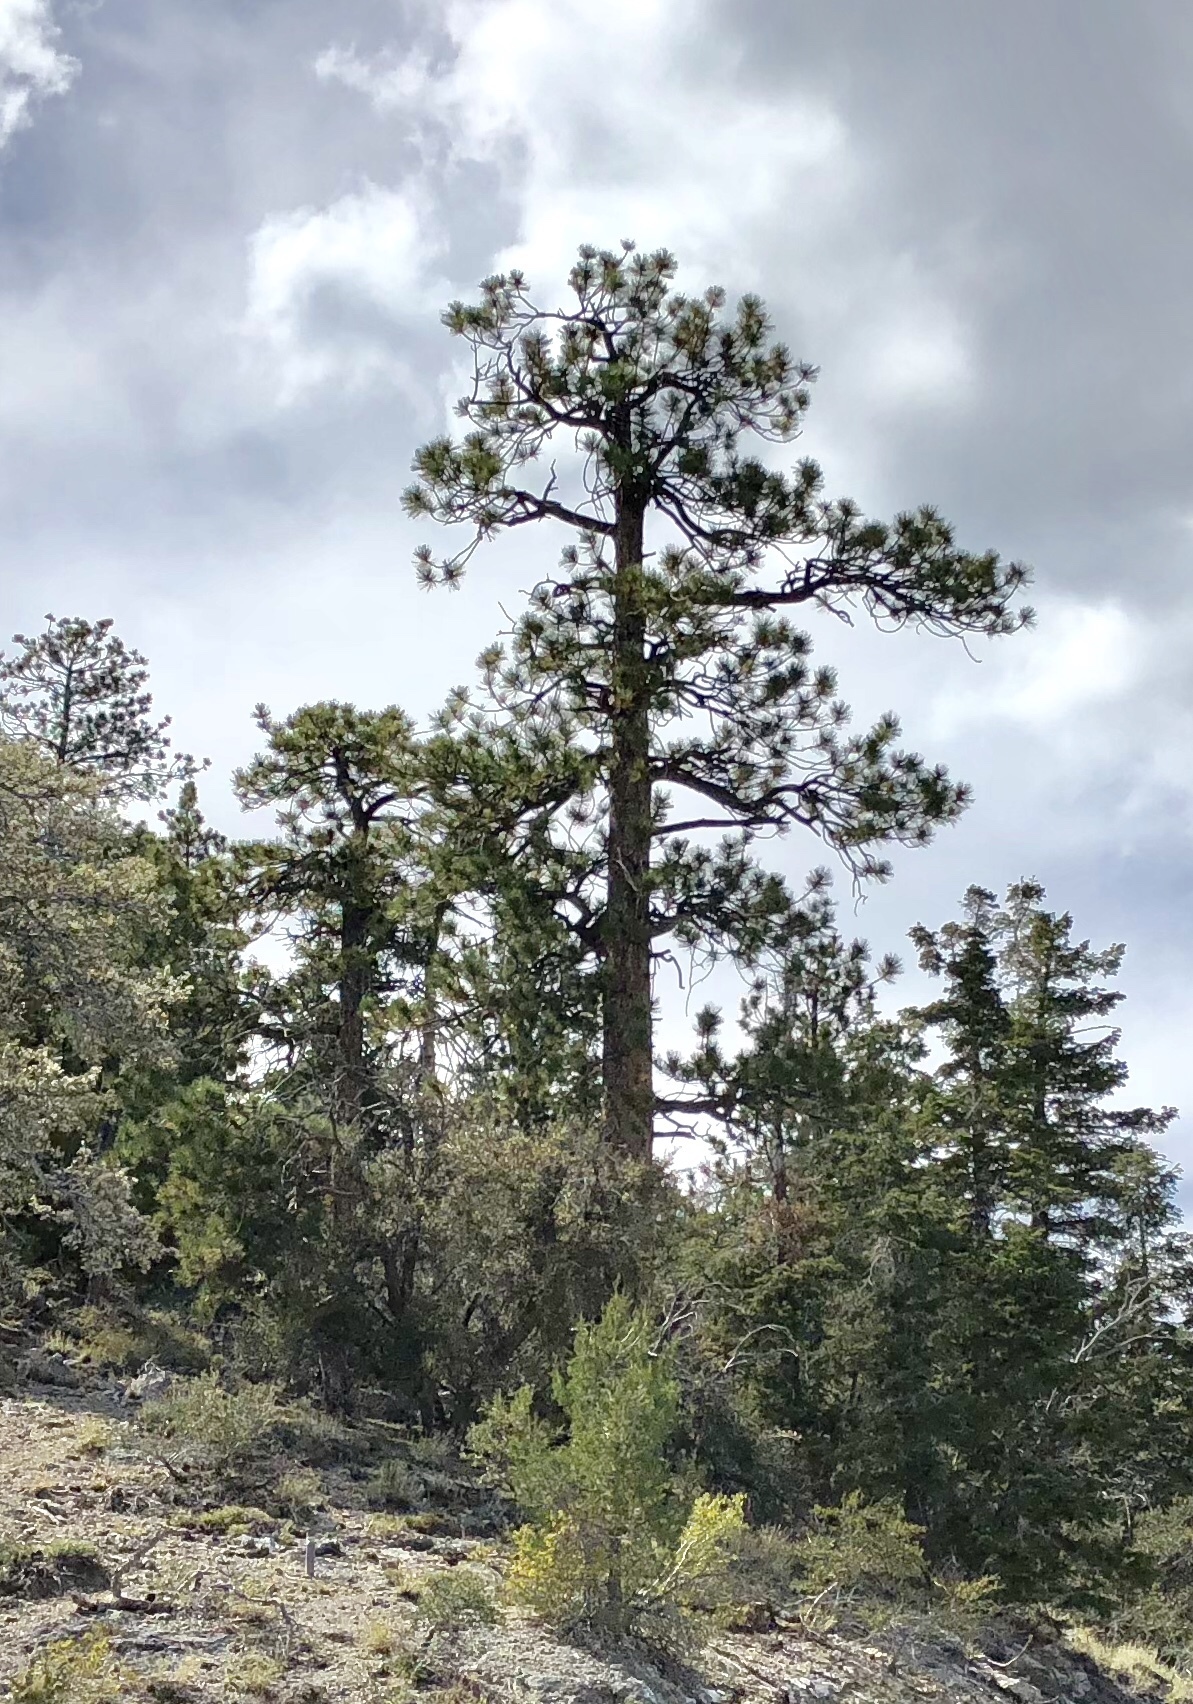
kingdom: Plantae
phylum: Tracheophyta
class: Pinopsida
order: Pinales
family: Pinaceae
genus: Pinus
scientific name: Pinus ponderosa
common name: Western yellow-pine
